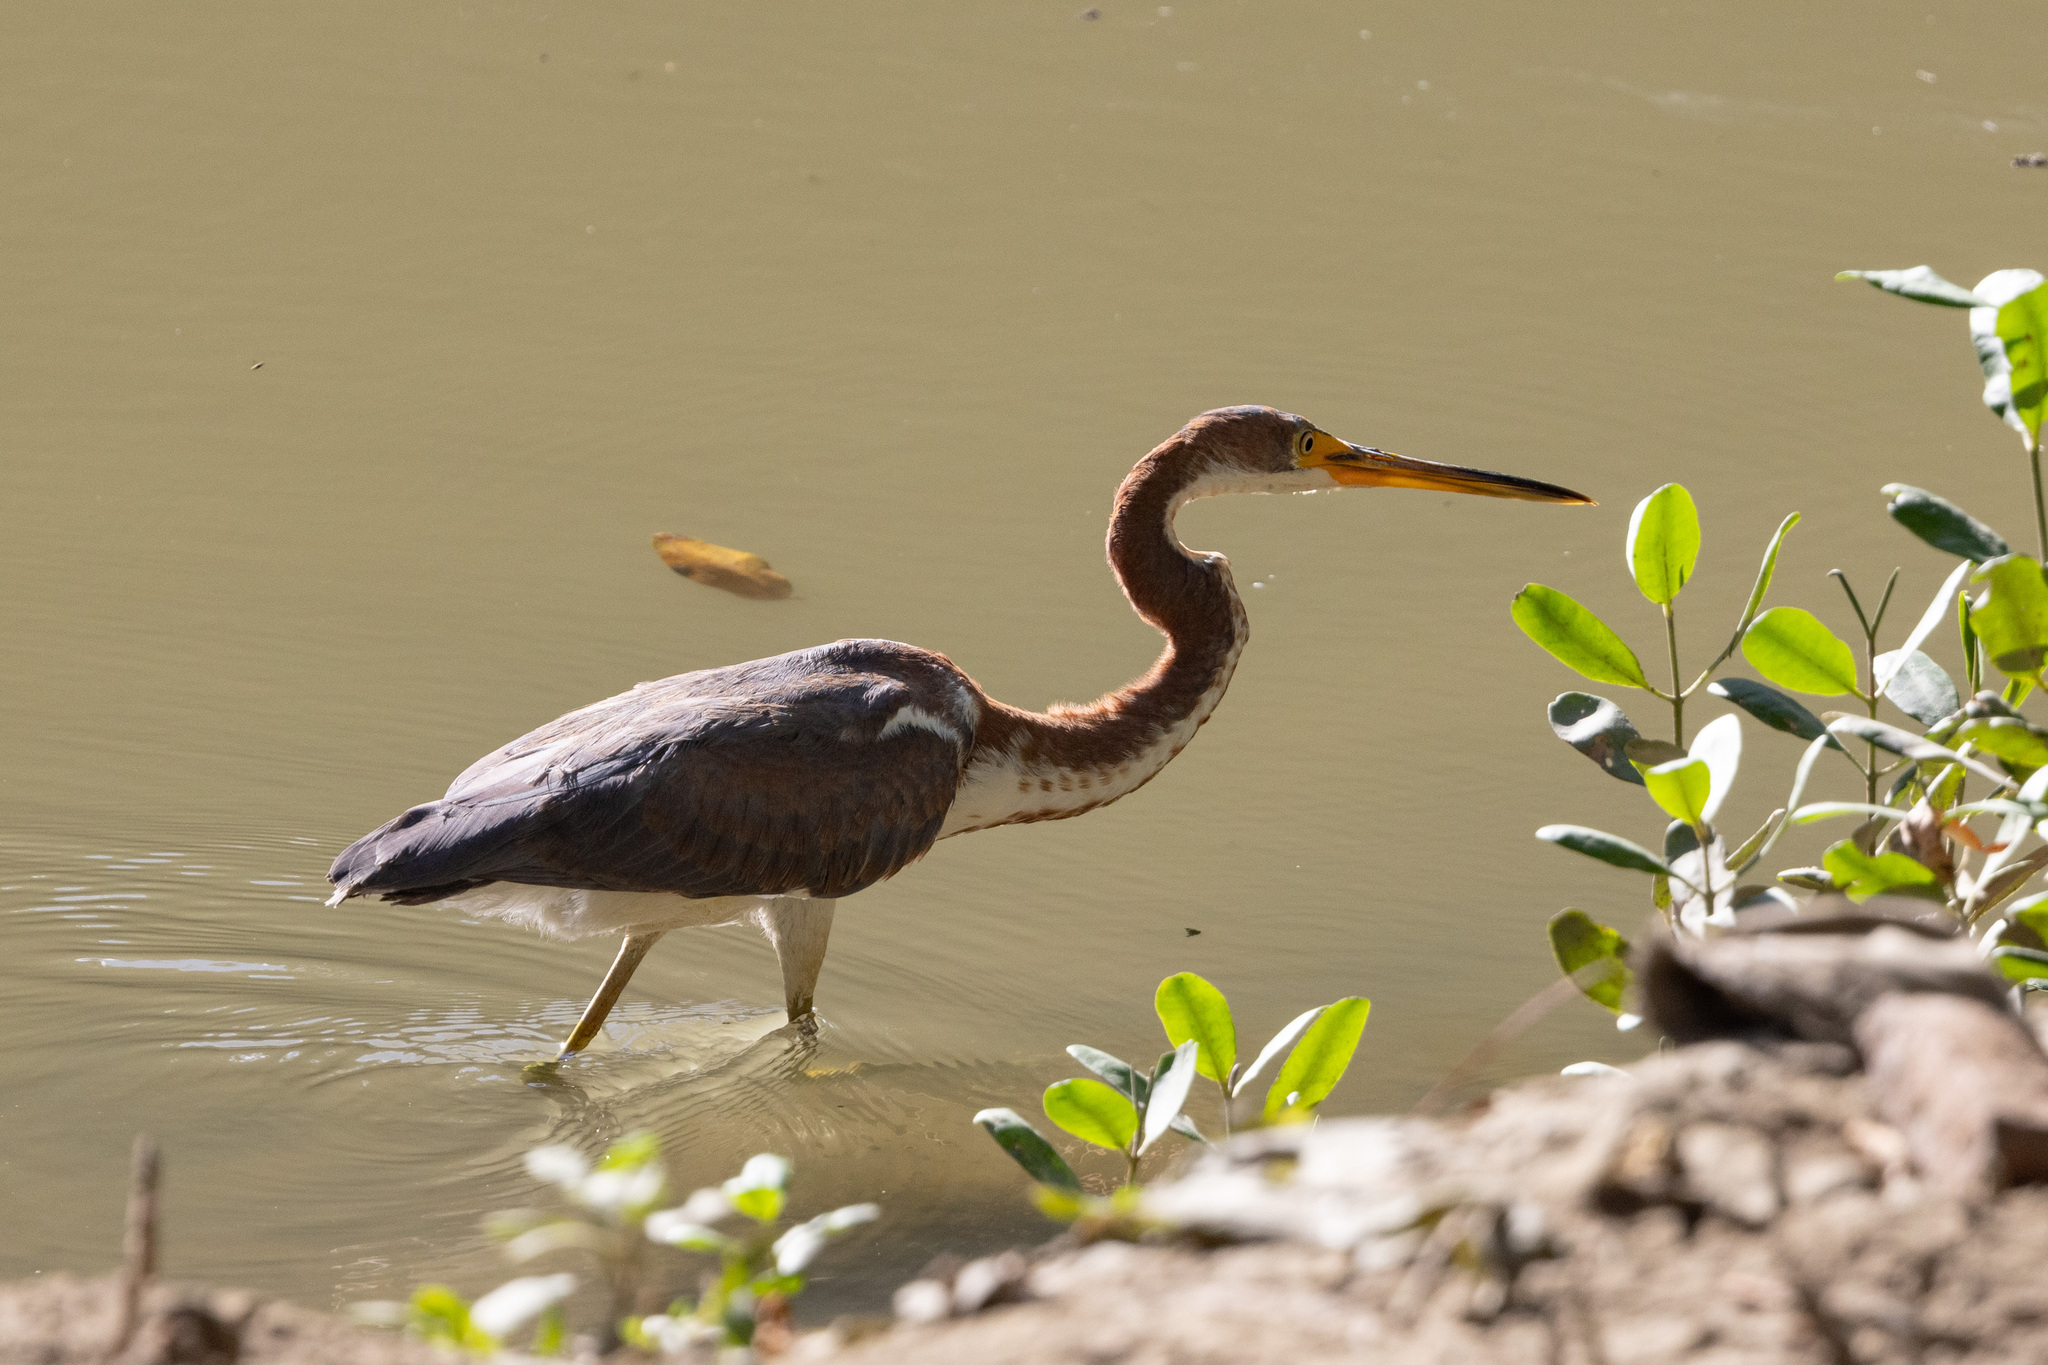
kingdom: Animalia
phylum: Chordata
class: Aves
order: Pelecaniformes
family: Ardeidae
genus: Egretta
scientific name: Egretta tricolor
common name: Tricolored heron
